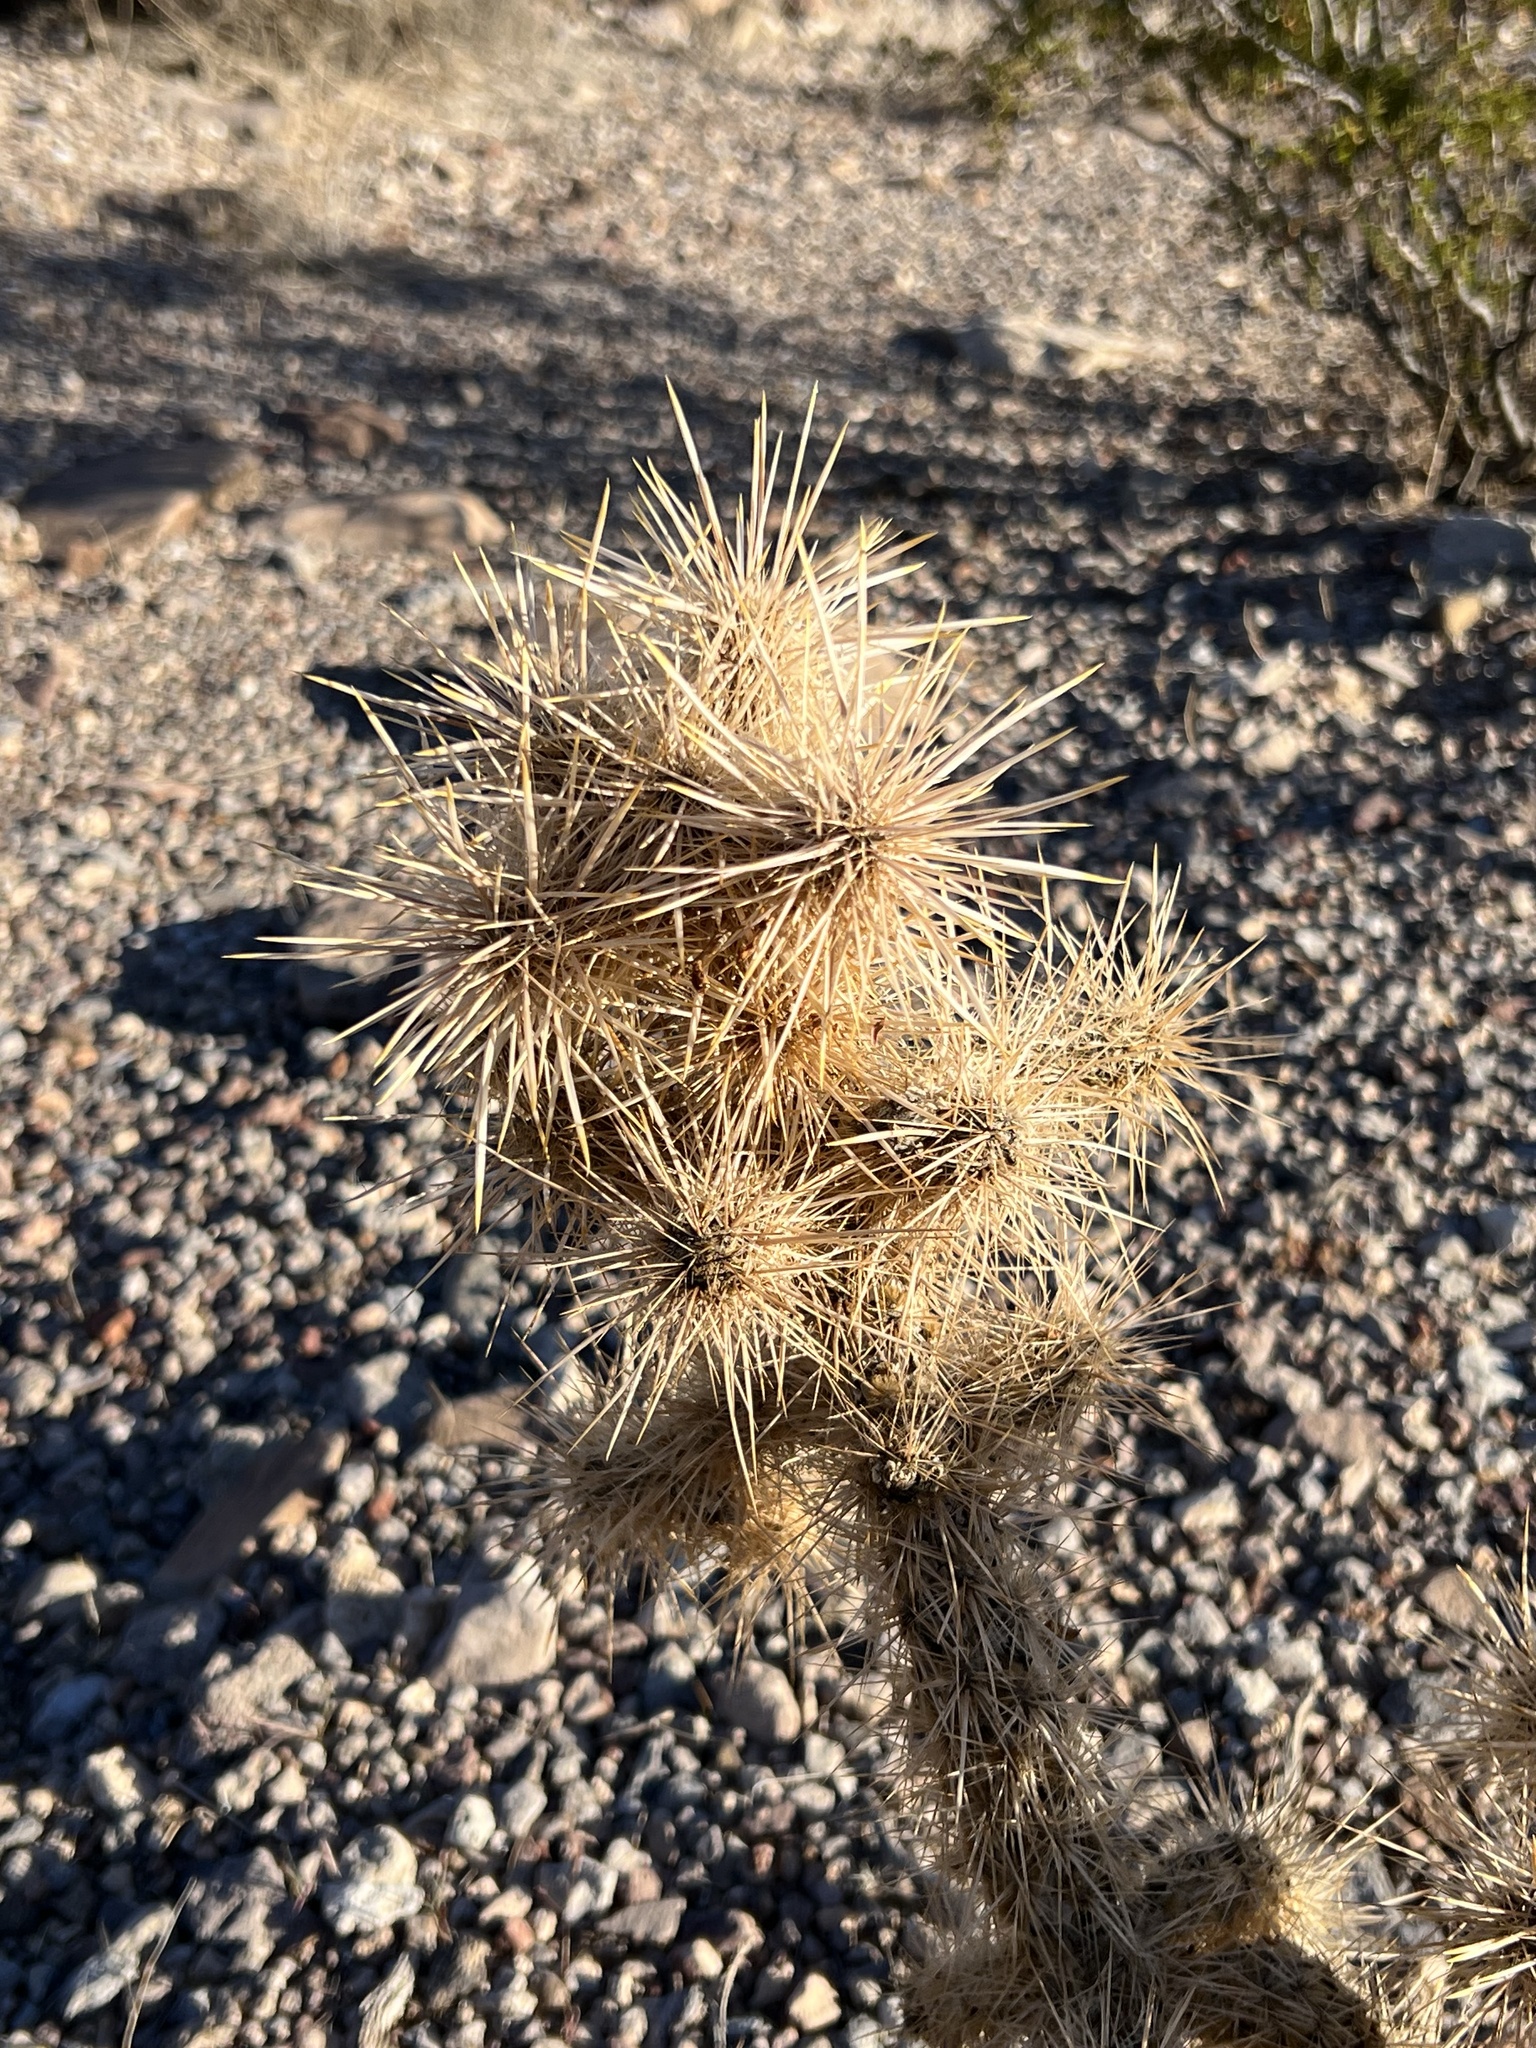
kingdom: Plantae
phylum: Tracheophyta
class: Magnoliopsida
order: Caryophyllales
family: Cactaceae
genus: Cylindropuntia
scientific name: Cylindropuntia echinocarpa
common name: Ground cholla
